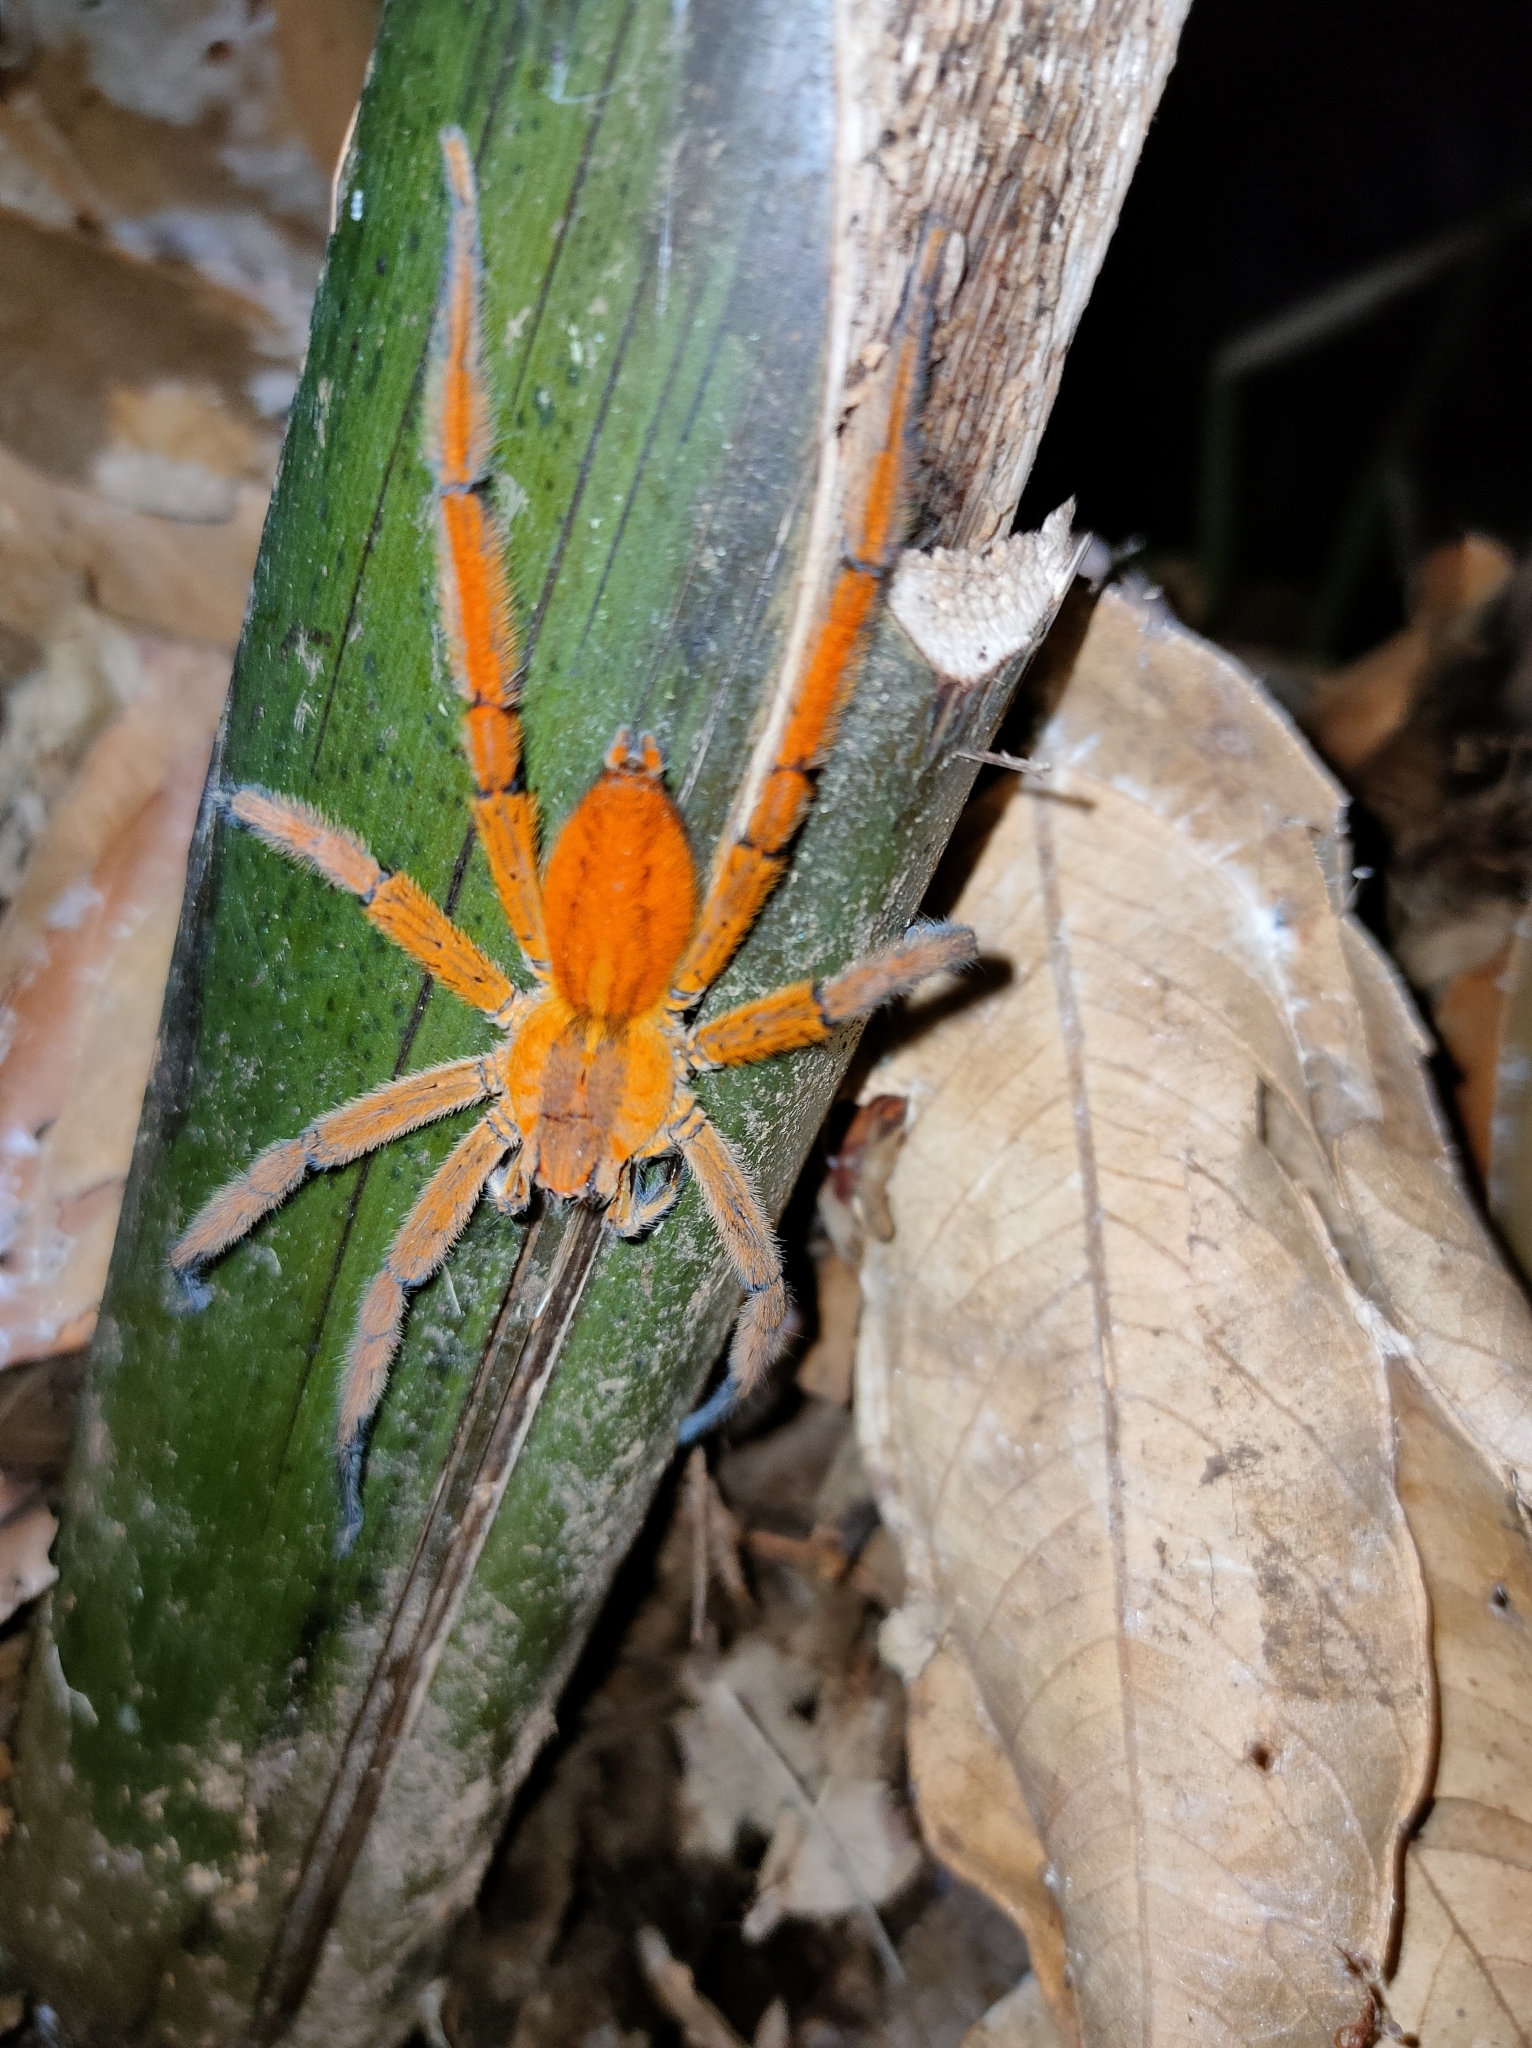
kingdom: Animalia
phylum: Arthropoda
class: Arachnida
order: Araneae
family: Trechaleidae
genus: Cupiennius
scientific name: Cupiennius getazi
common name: Wandering spiders
